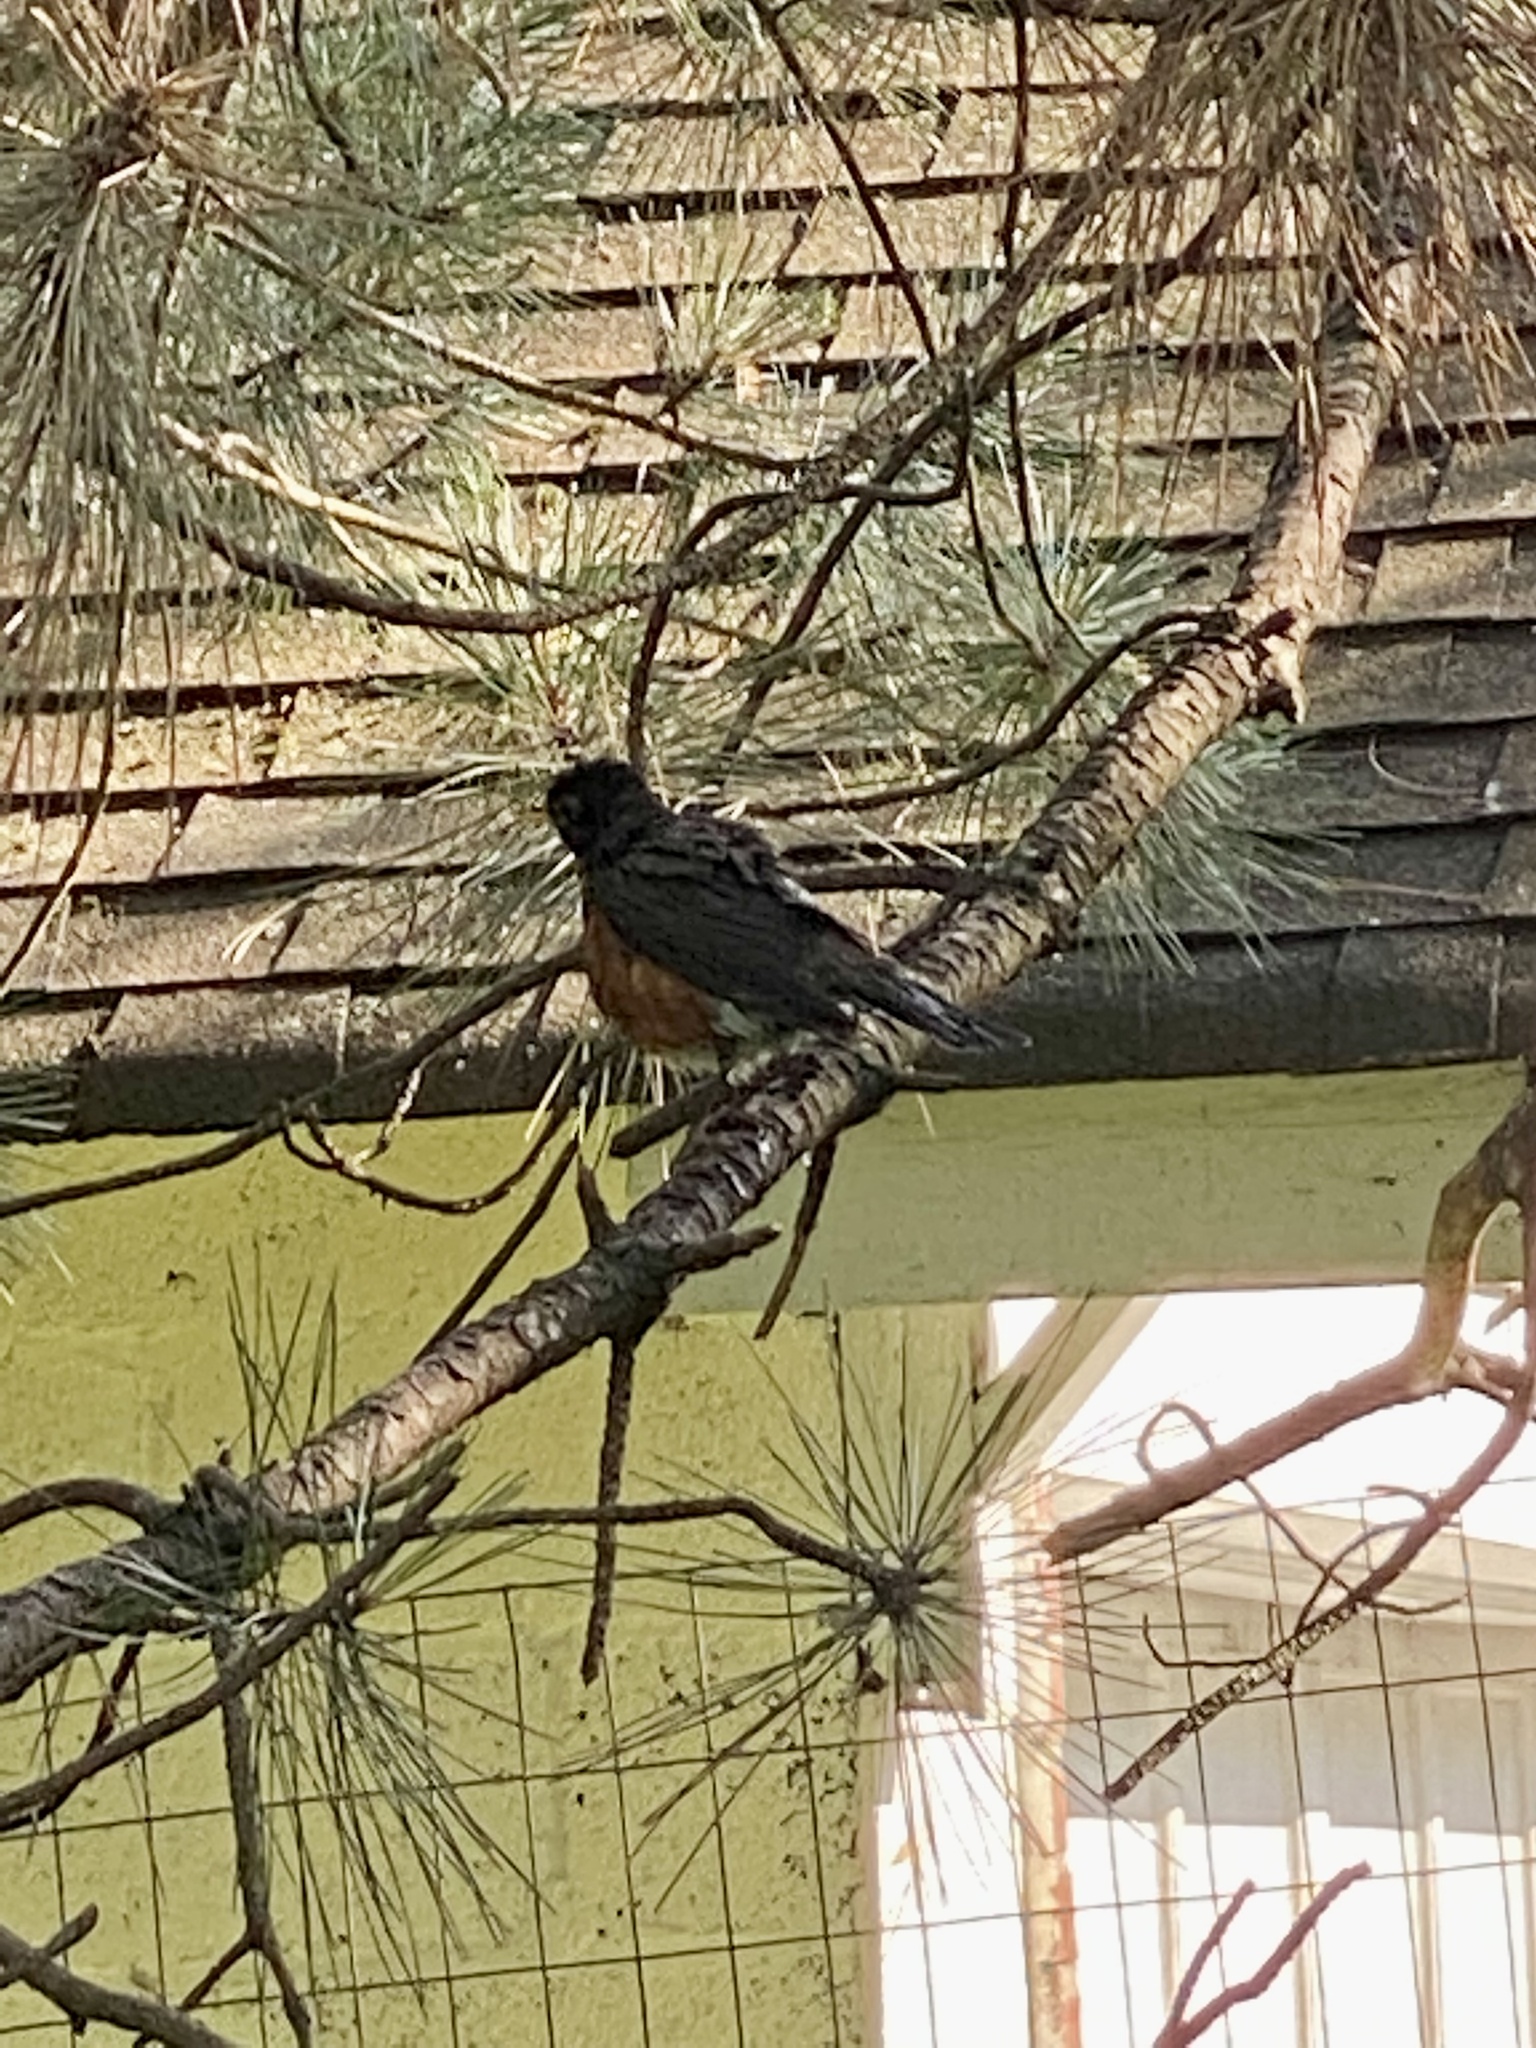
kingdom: Animalia
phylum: Chordata
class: Aves
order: Passeriformes
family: Turdidae
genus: Turdus
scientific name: Turdus migratorius
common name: American robin
